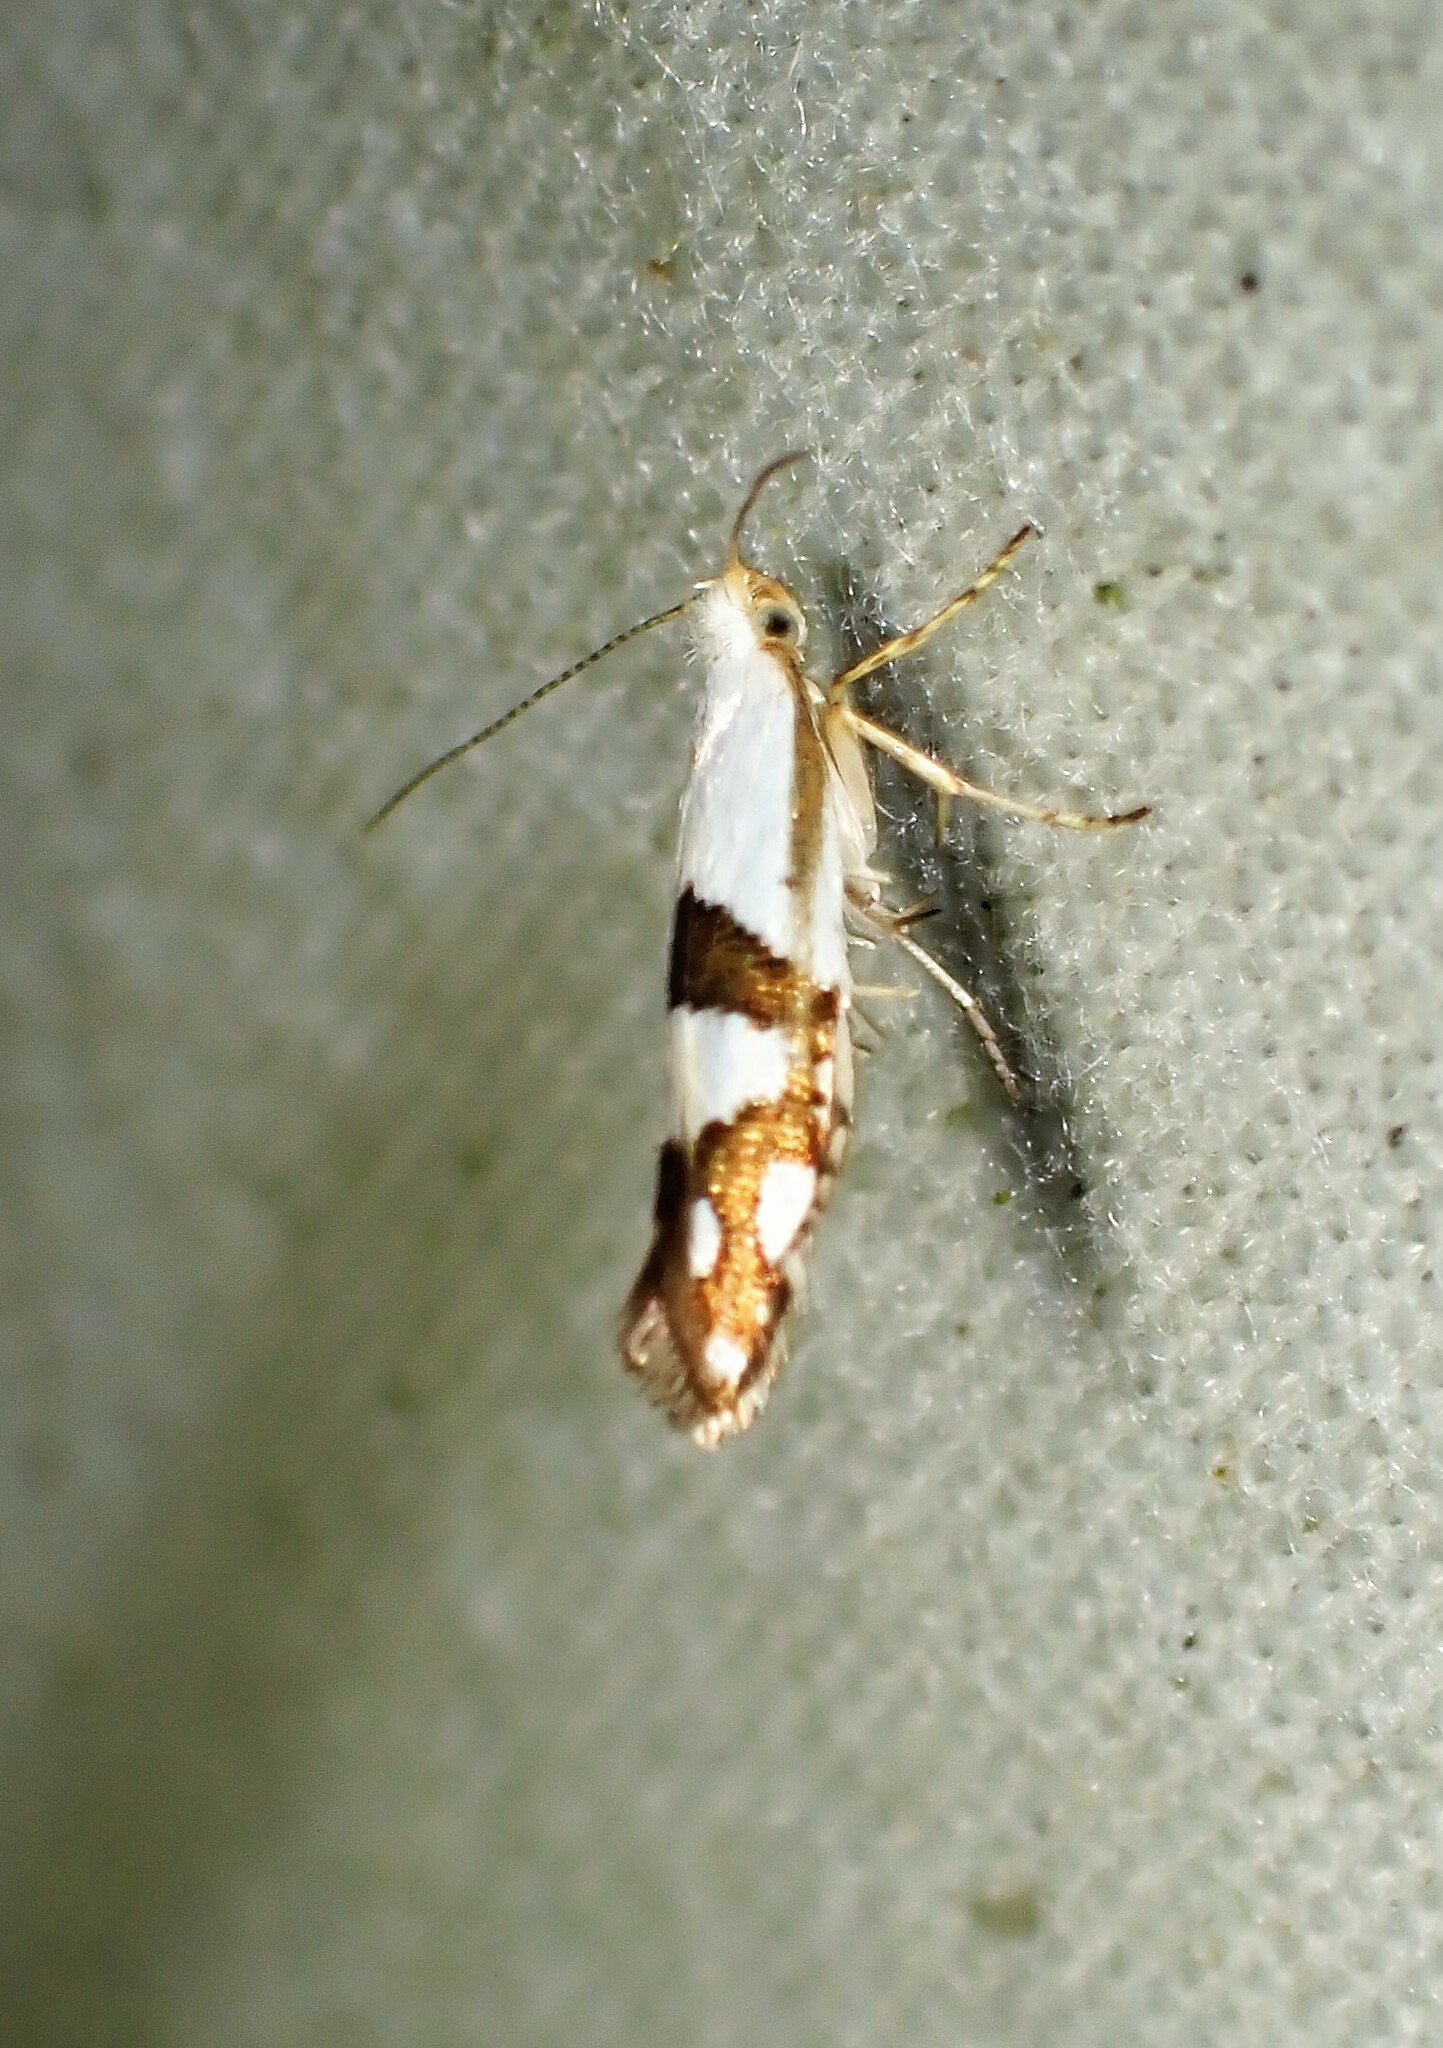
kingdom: Animalia
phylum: Arthropoda
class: Insecta
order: Lepidoptera
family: Argyresthiidae
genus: Argyresthia
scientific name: Argyresthia oreasella
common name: Cherry shoot borer moth
